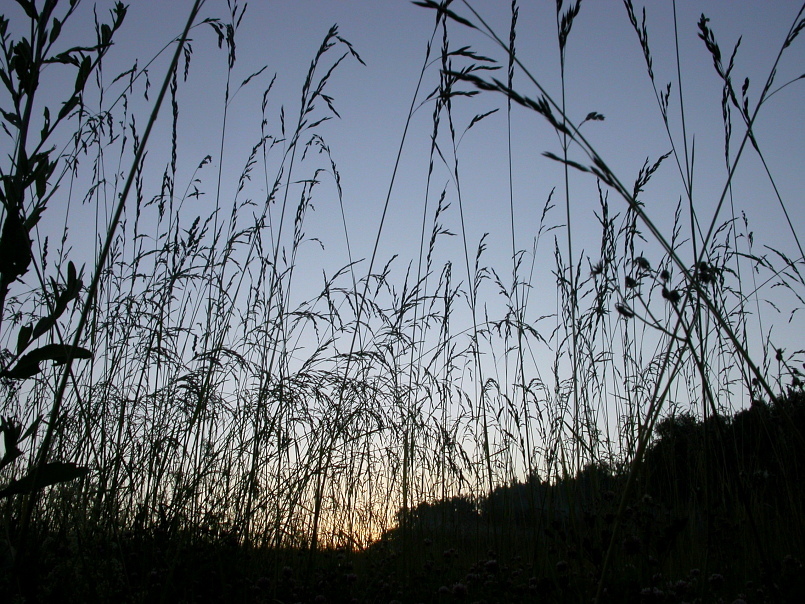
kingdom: Plantae
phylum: Tracheophyta
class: Liliopsida
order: Poales
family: Poaceae
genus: Lolium
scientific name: Lolium arundinaceum
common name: Reed fescue
